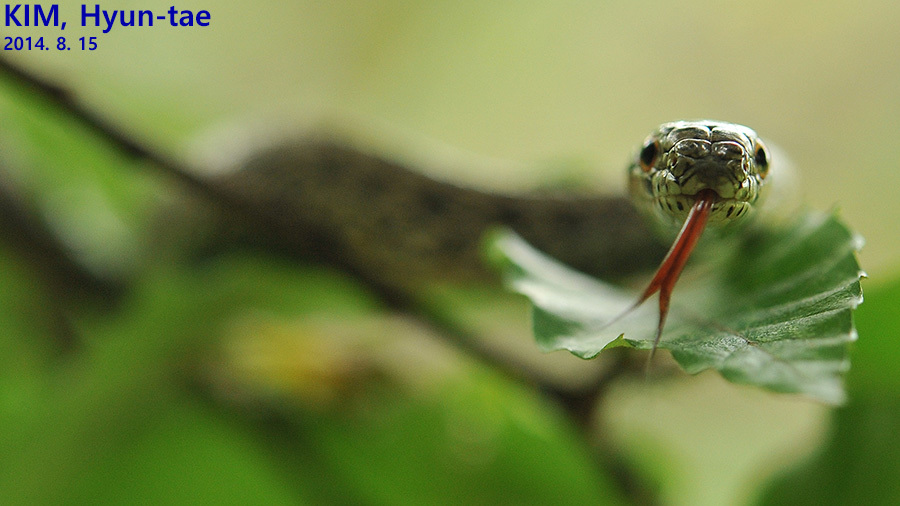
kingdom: Animalia
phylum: Chordata
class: Squamata
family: Colubridae
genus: Elaphe
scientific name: Elaphe dione
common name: Dione ratsnake
